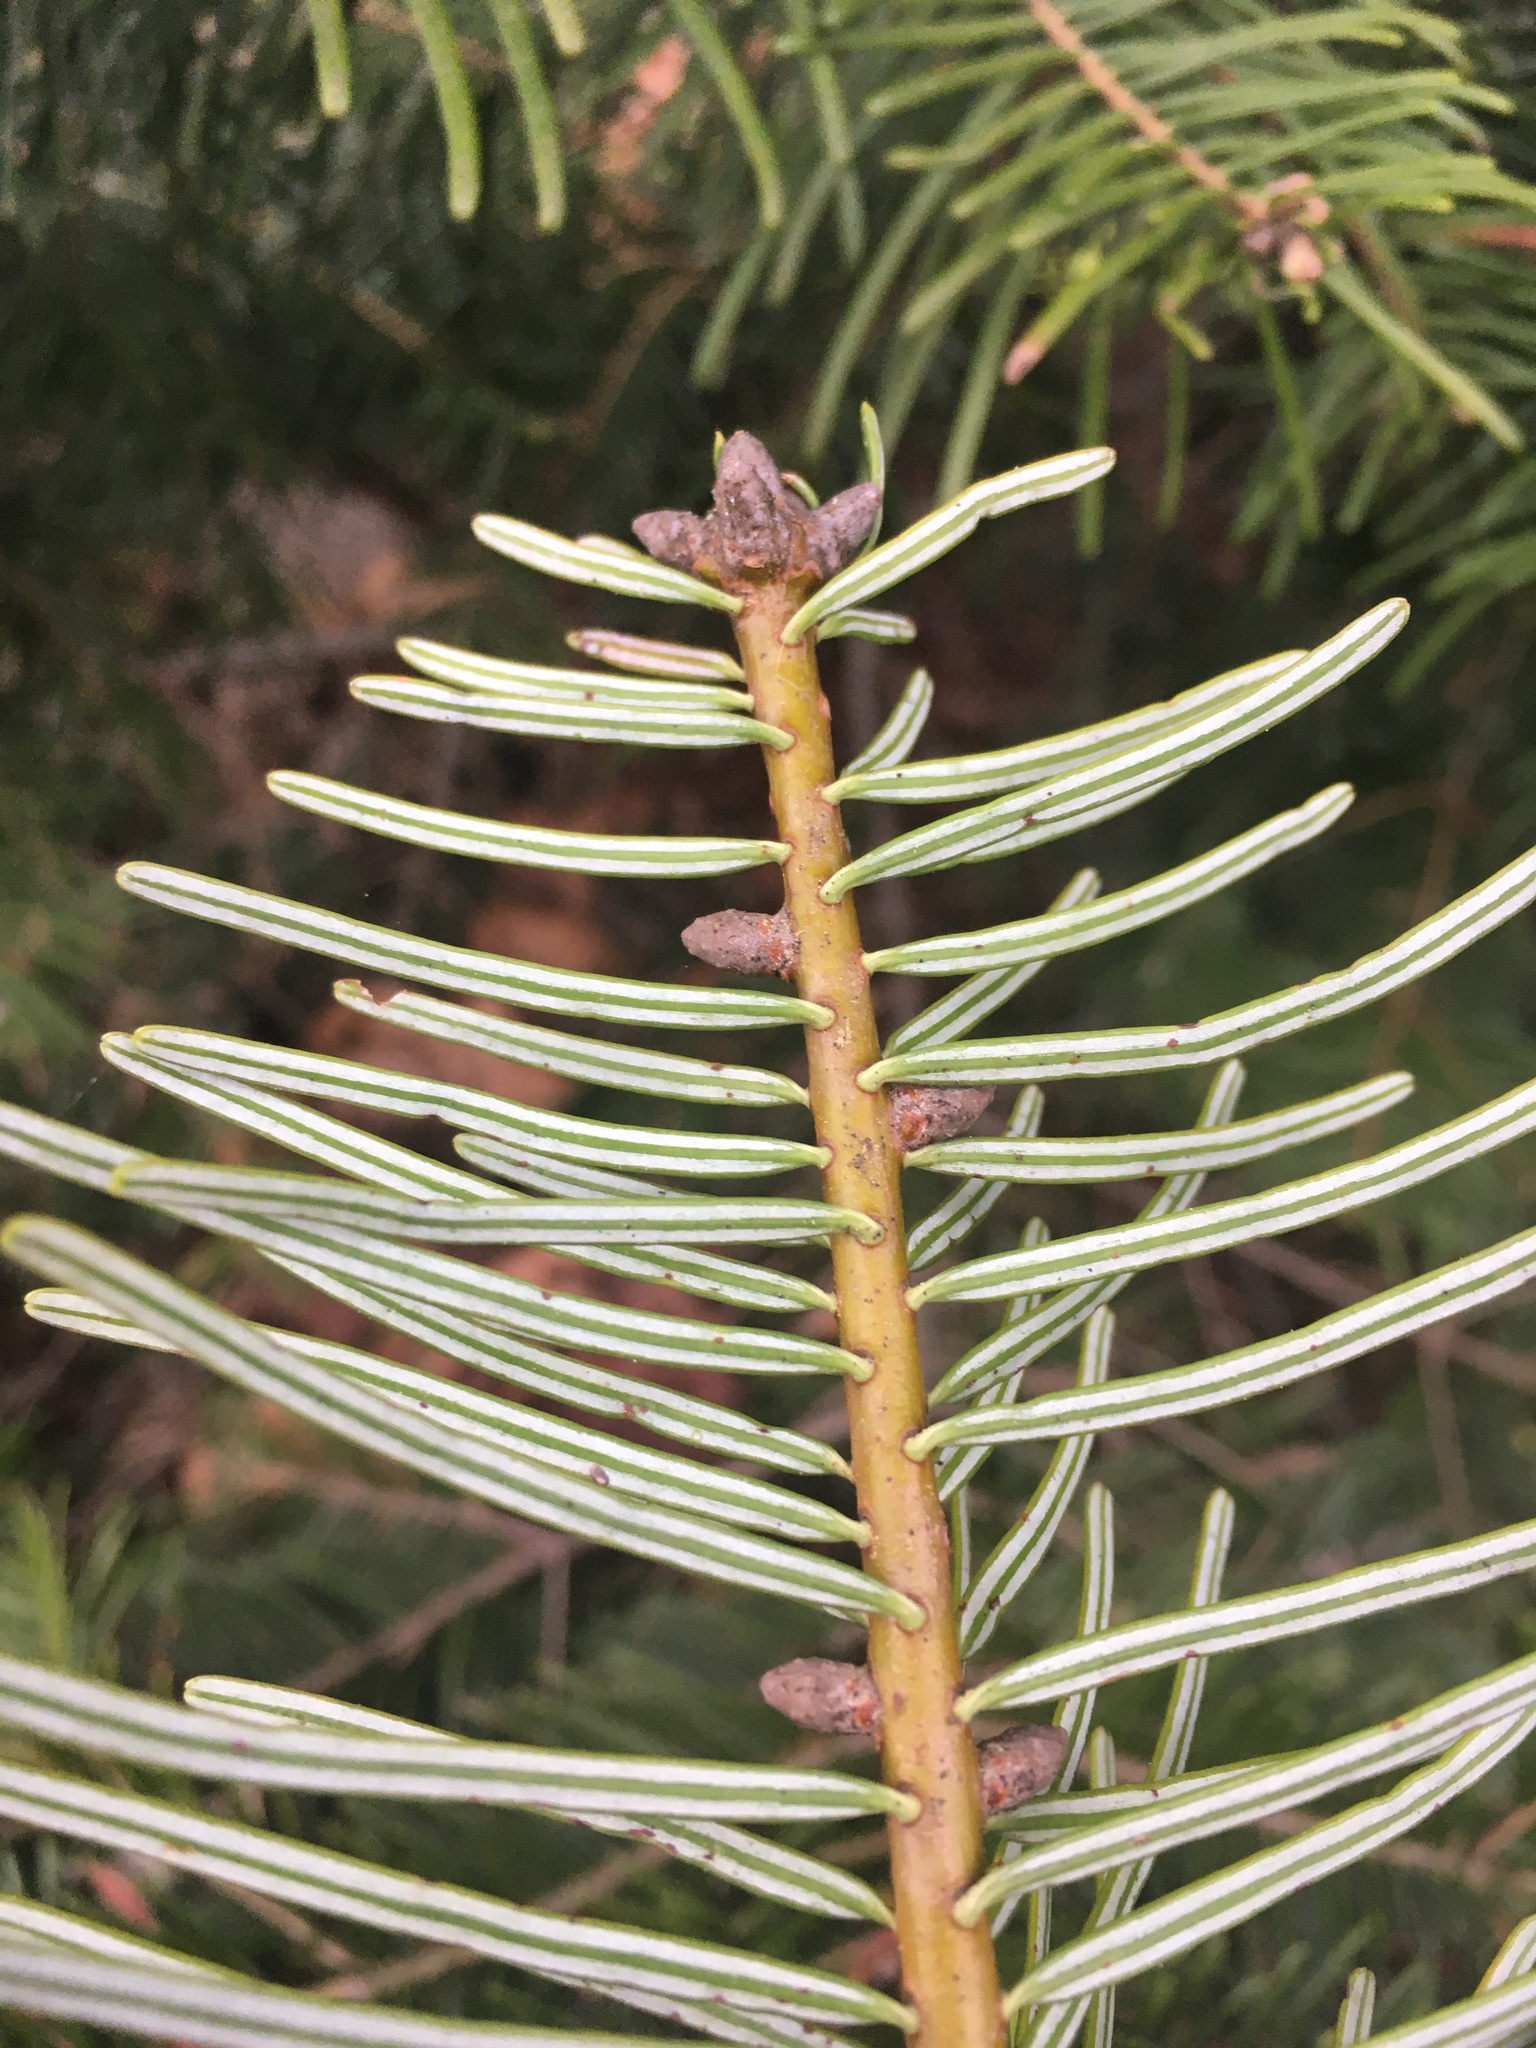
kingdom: Plantae
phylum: Tracheophyta
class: Pinopsida
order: Pinales
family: Pinaceae
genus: Abies
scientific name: Abies grandis
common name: Giant fir
